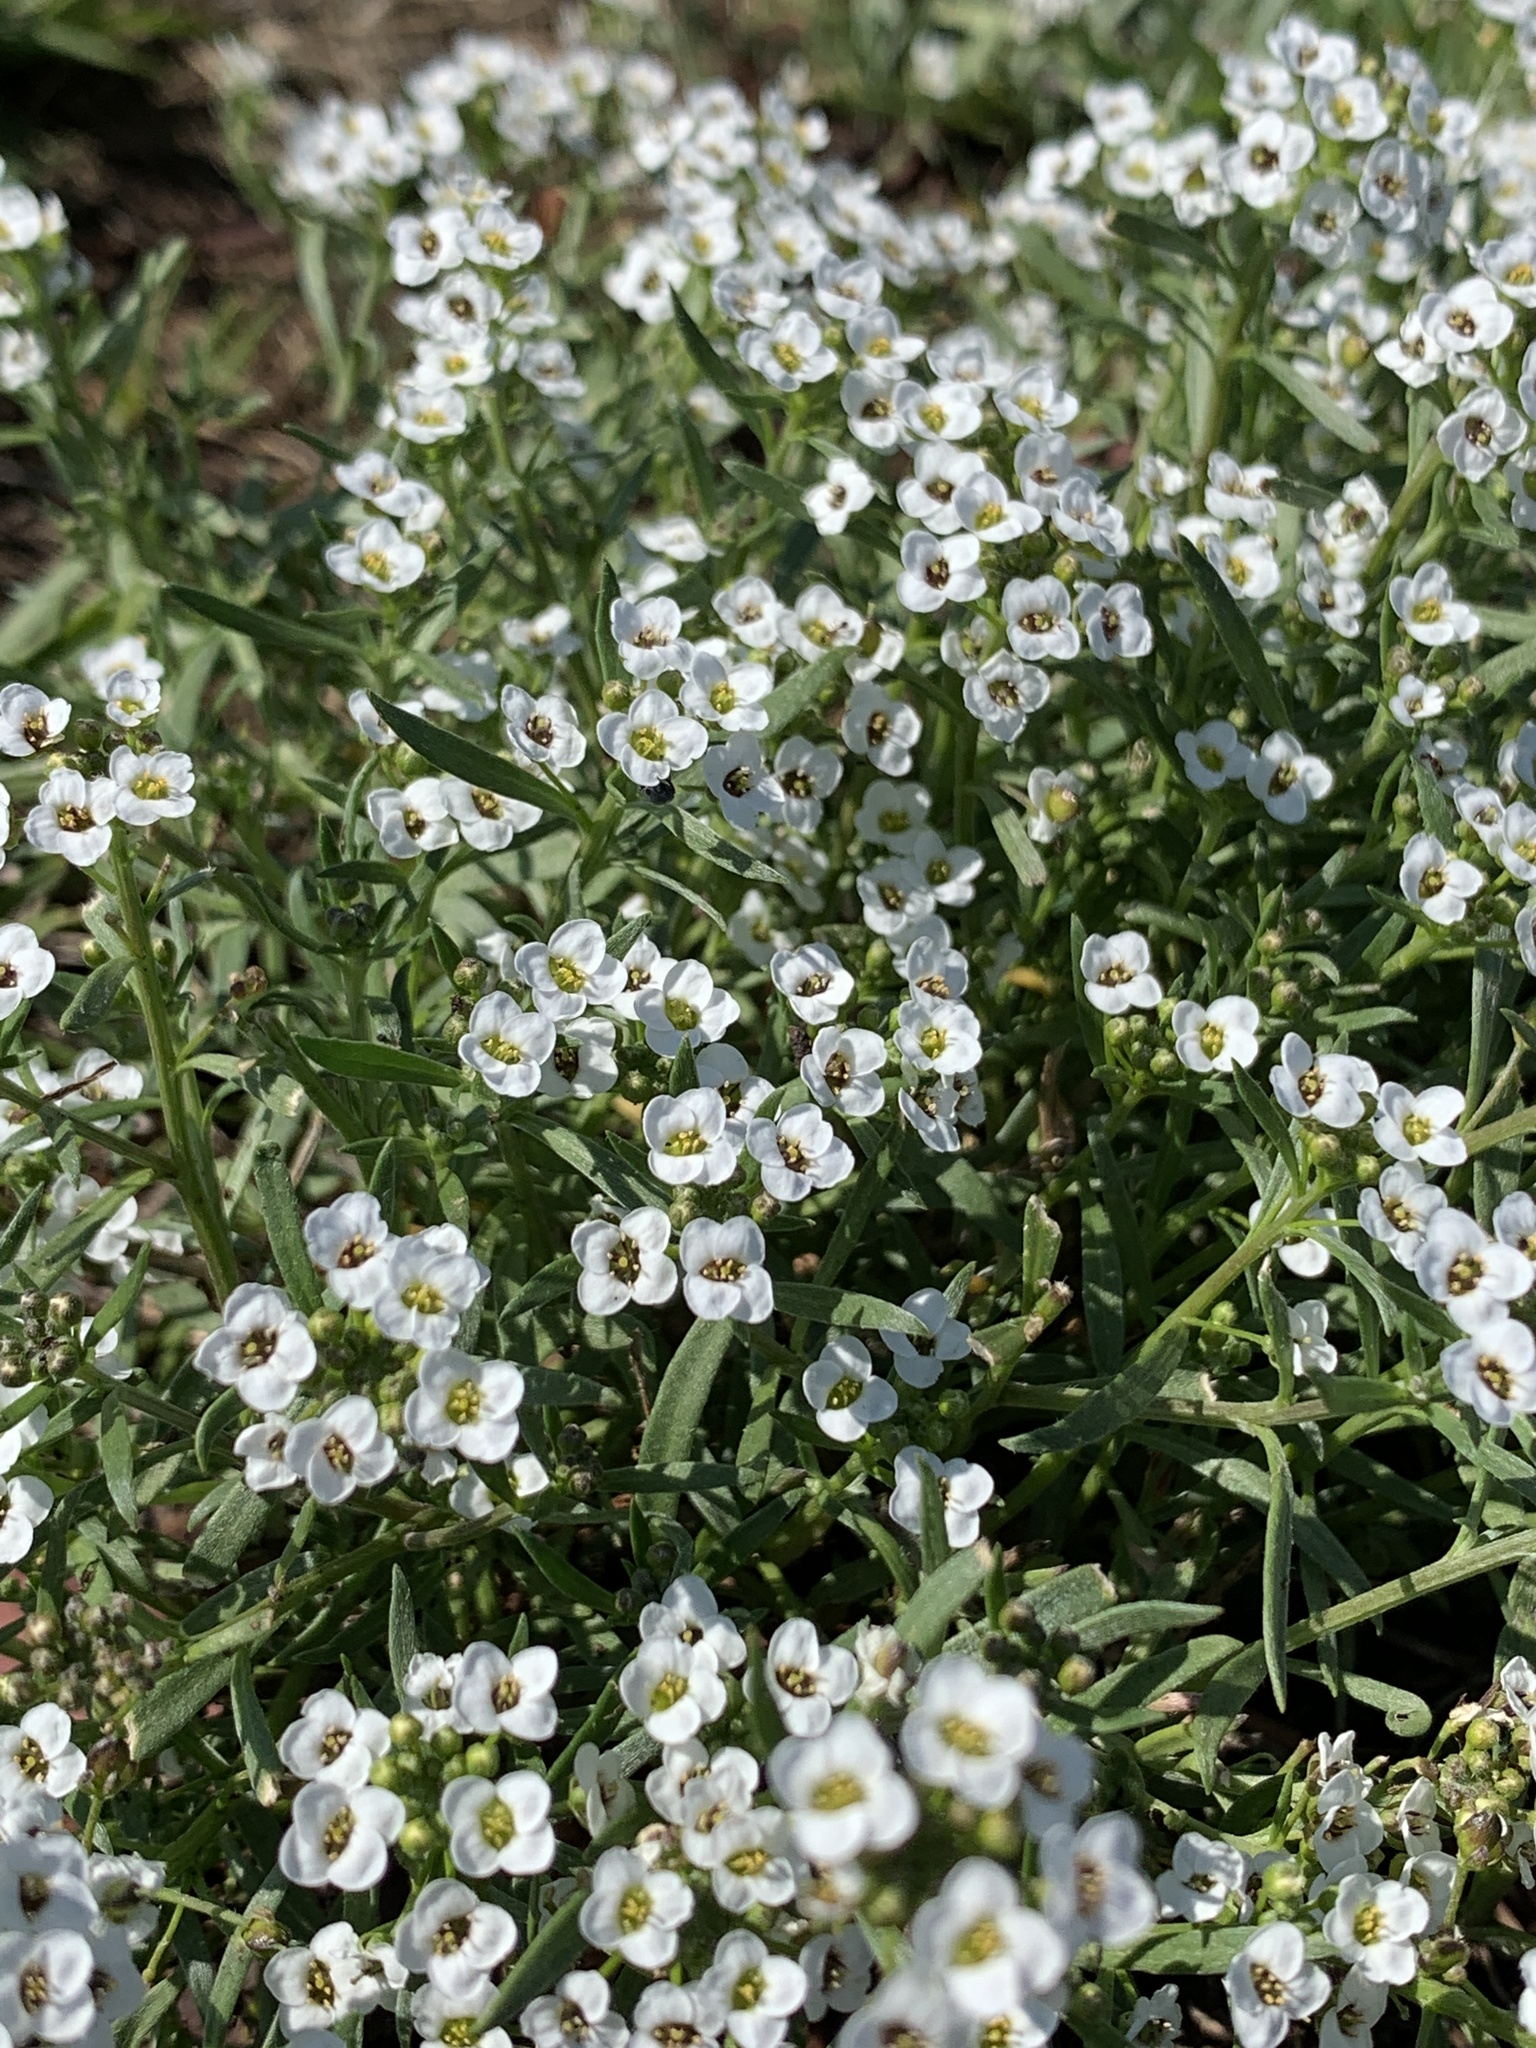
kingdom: Plantae
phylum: Tracheophyta
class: Magnoliopsida
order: Brassicales
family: Brassicaceae
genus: Lobularia
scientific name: Lobularia maritima
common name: Sweet alison
